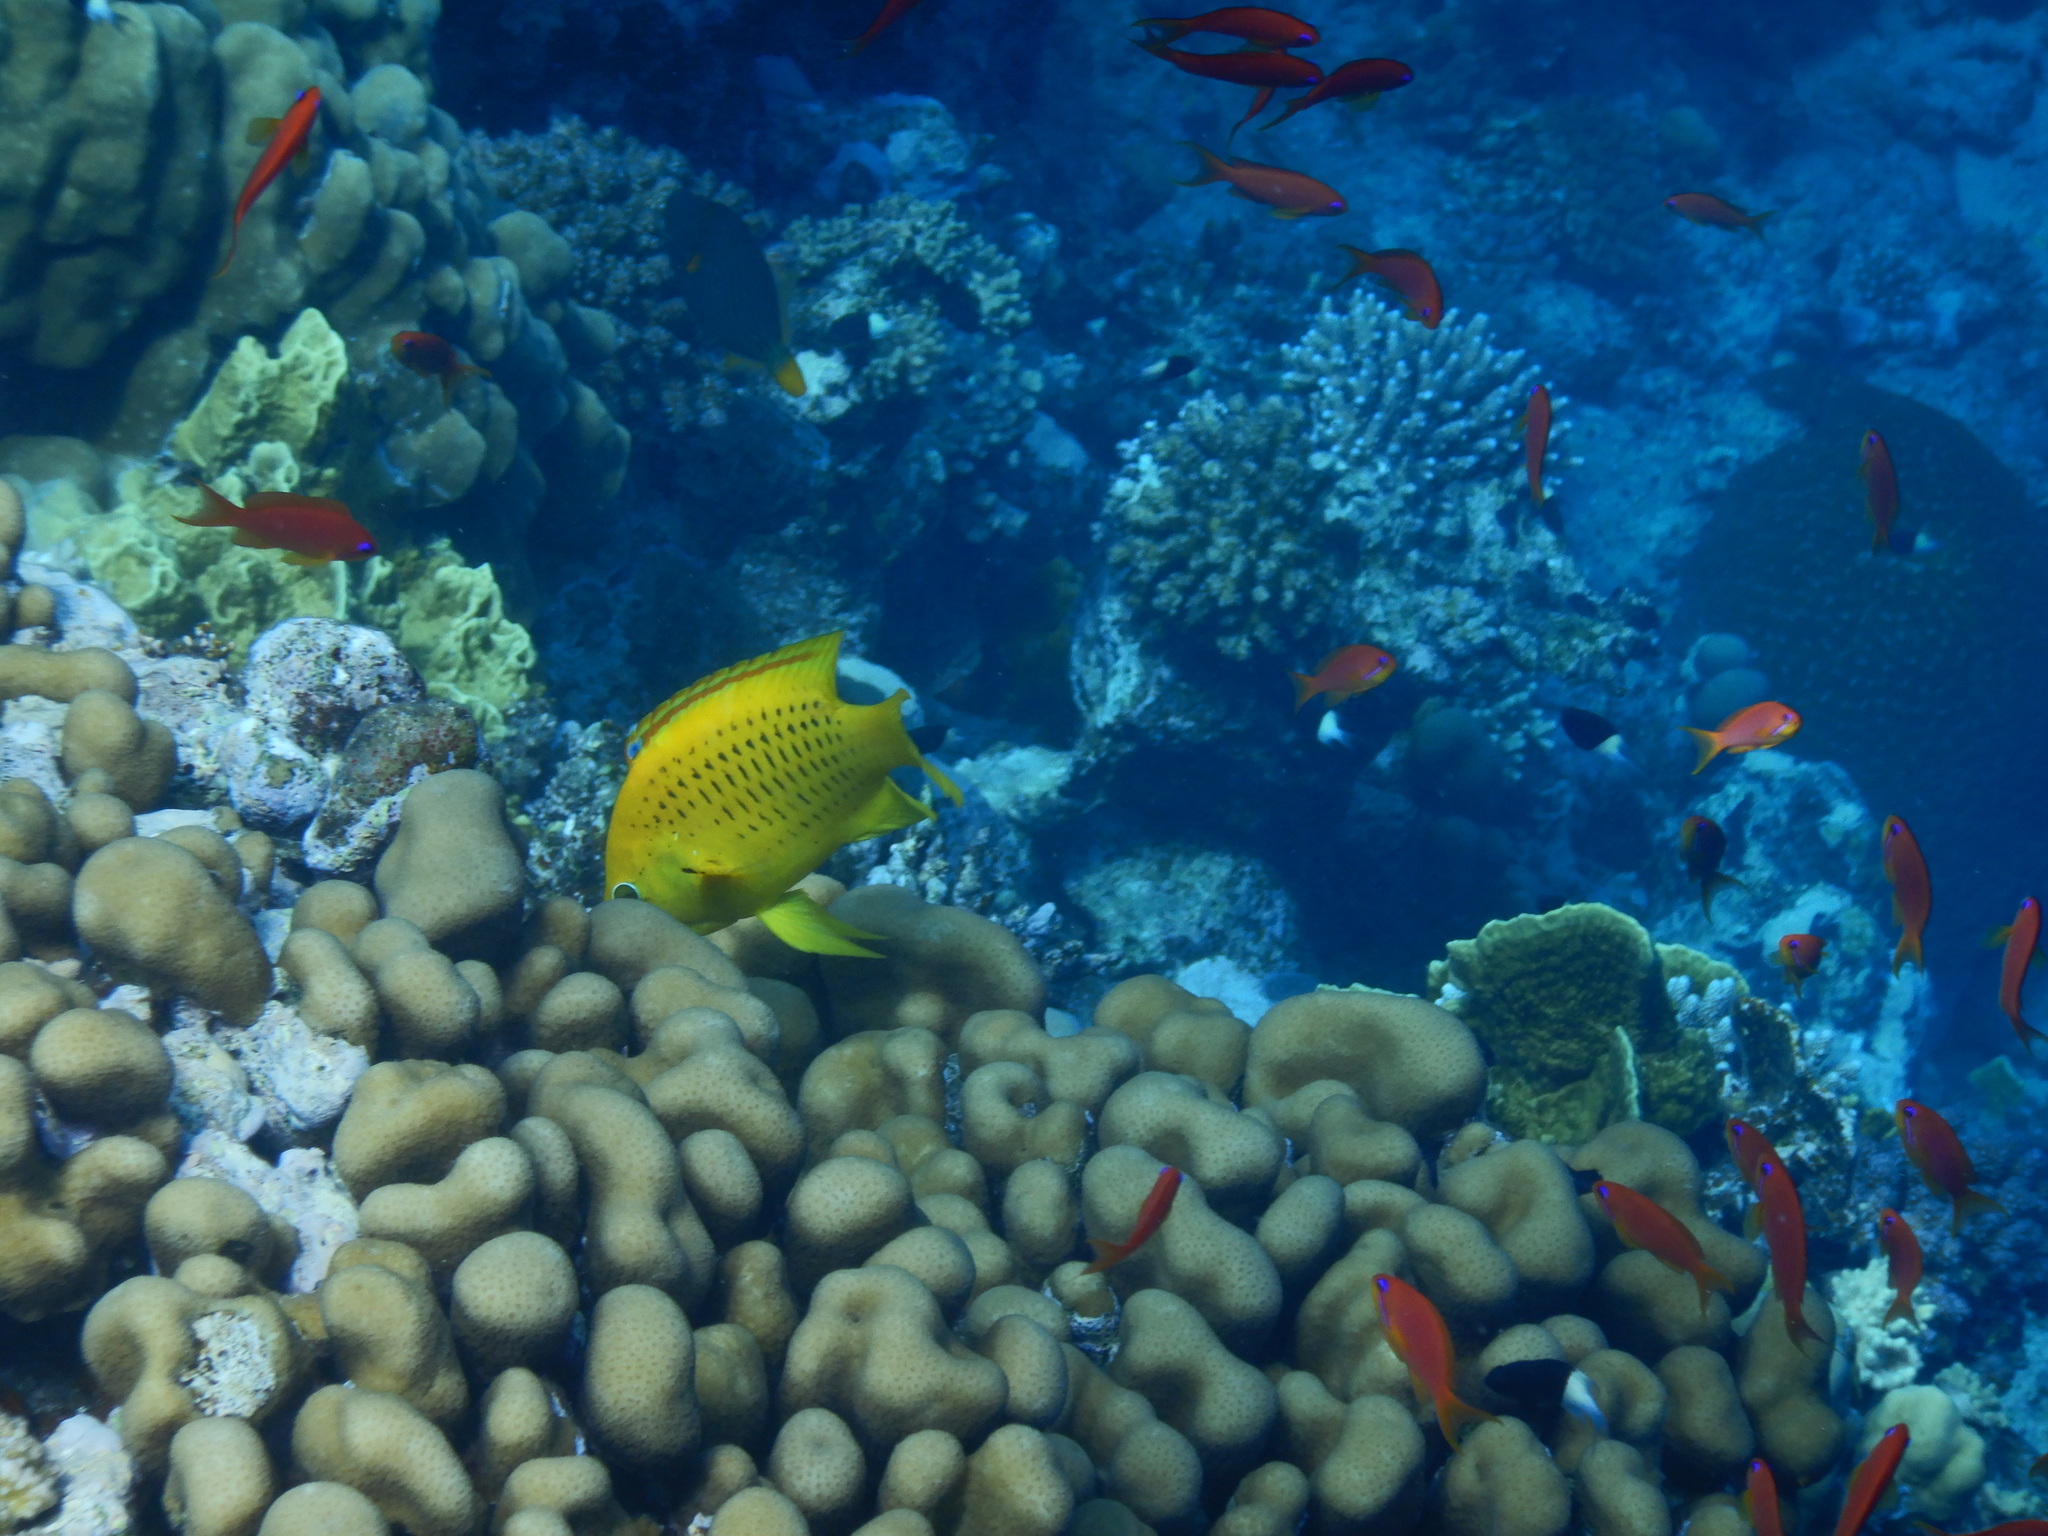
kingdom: Animalia
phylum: Chordata
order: Perciformes
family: Labridae
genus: Epibulus
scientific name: Epibulus insidiator
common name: Slingjaw wrasse
